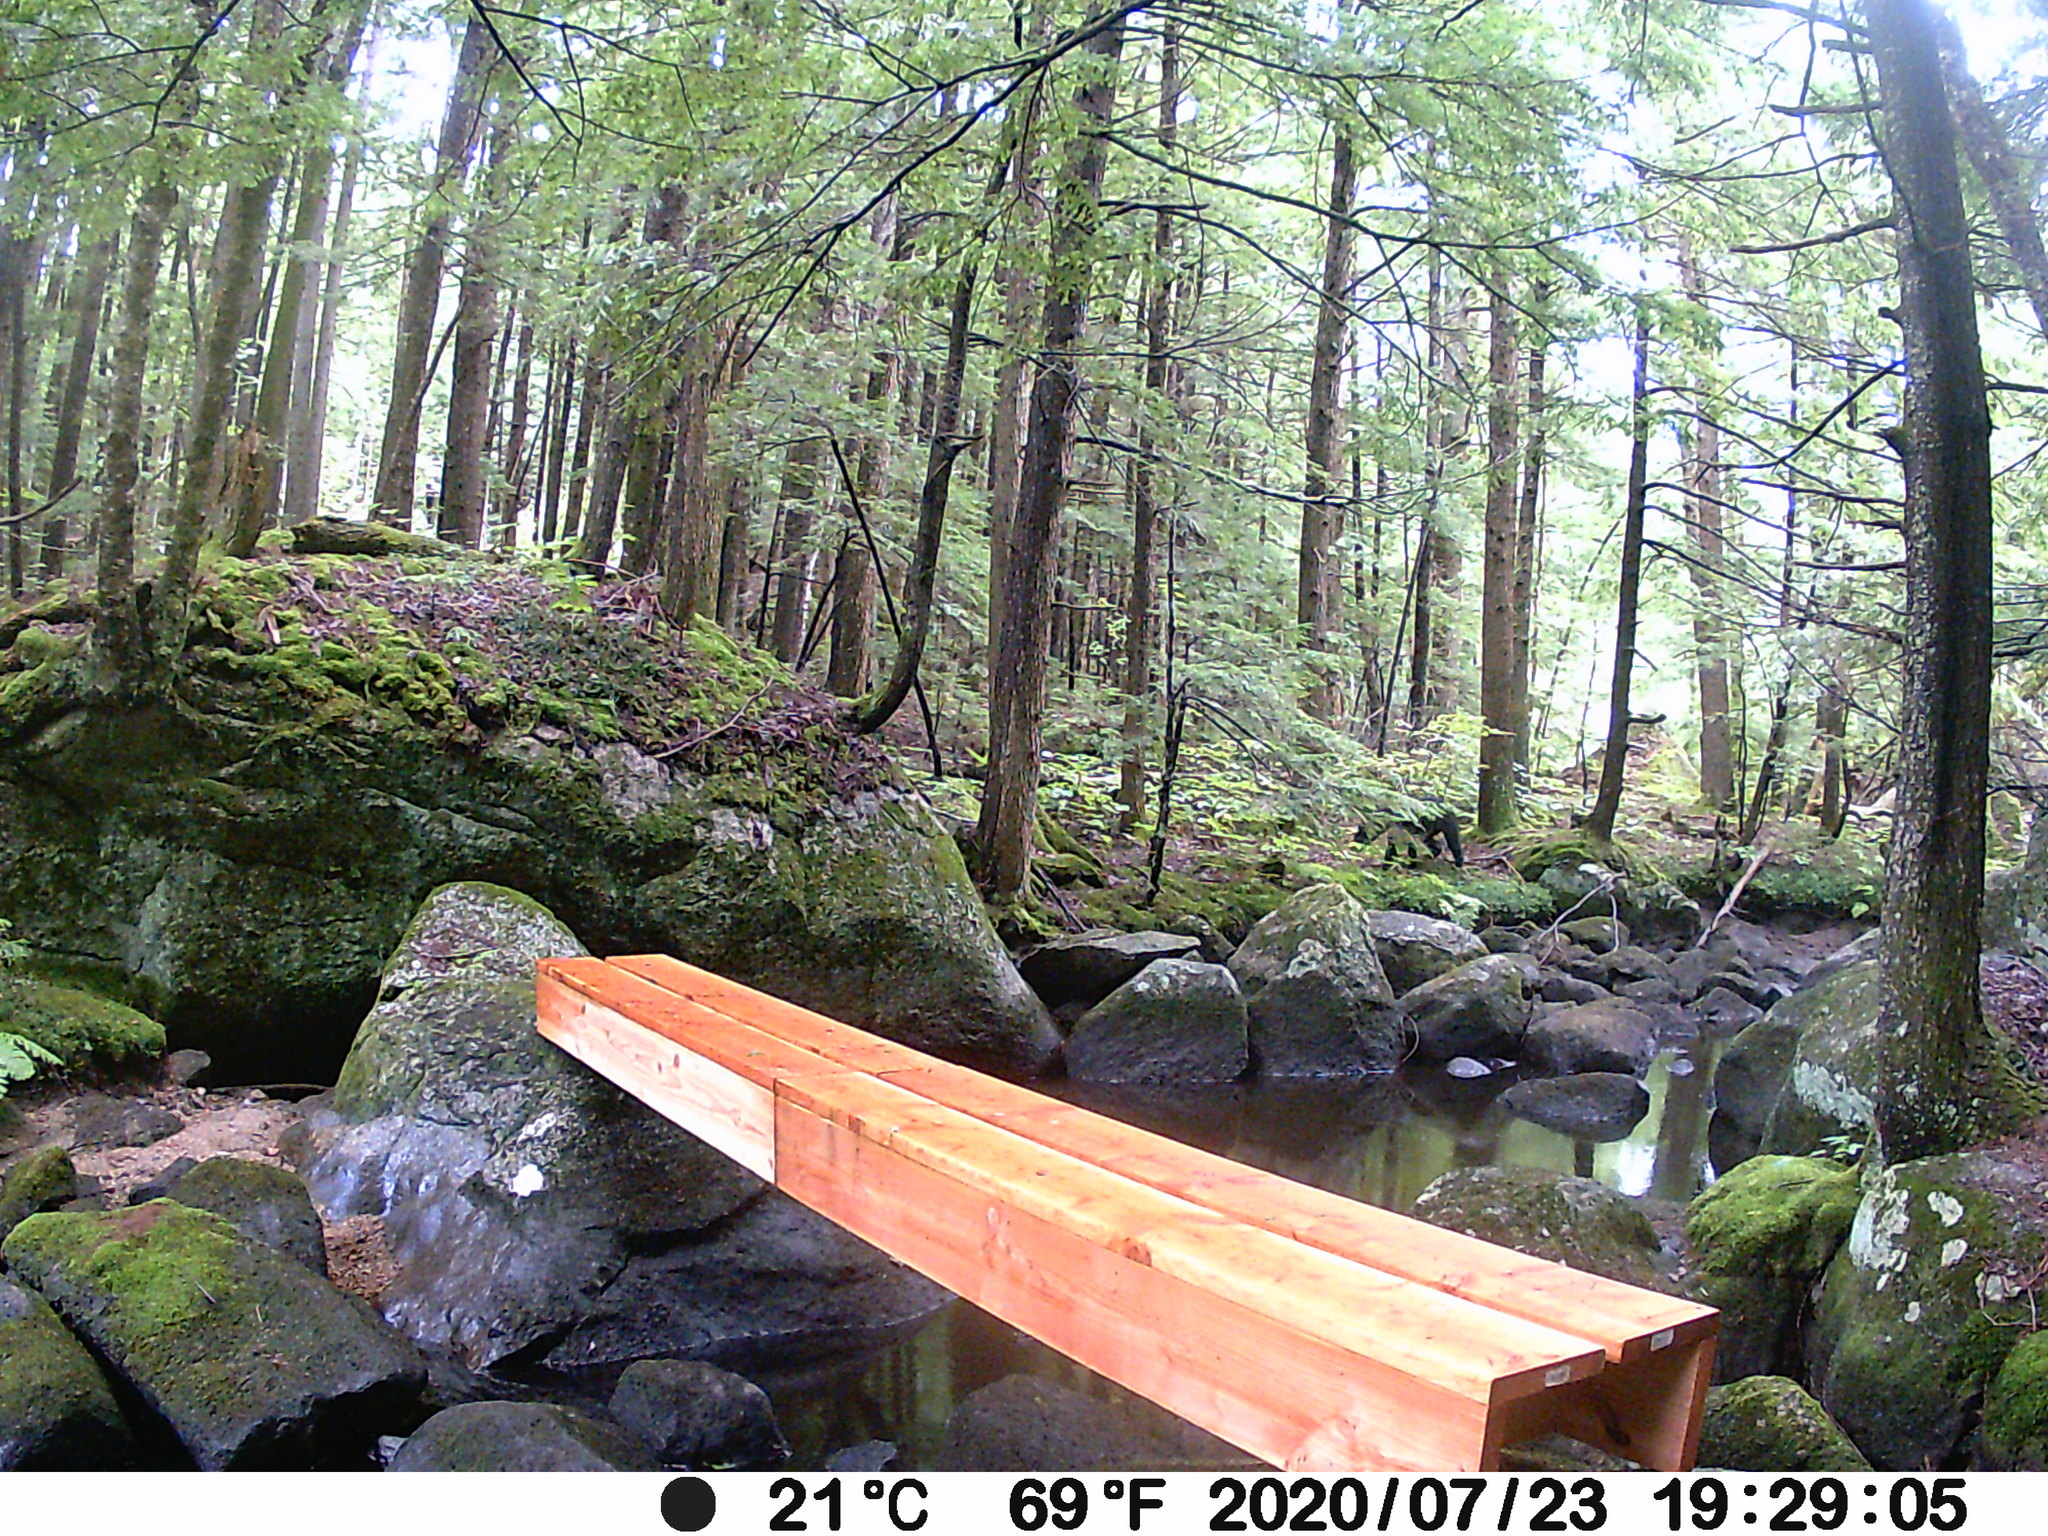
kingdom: Animalia
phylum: Chordata
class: Mammalia
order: Carnivora
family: Ursidae
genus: Ursus
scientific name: Ursus americanus
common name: American black bear
